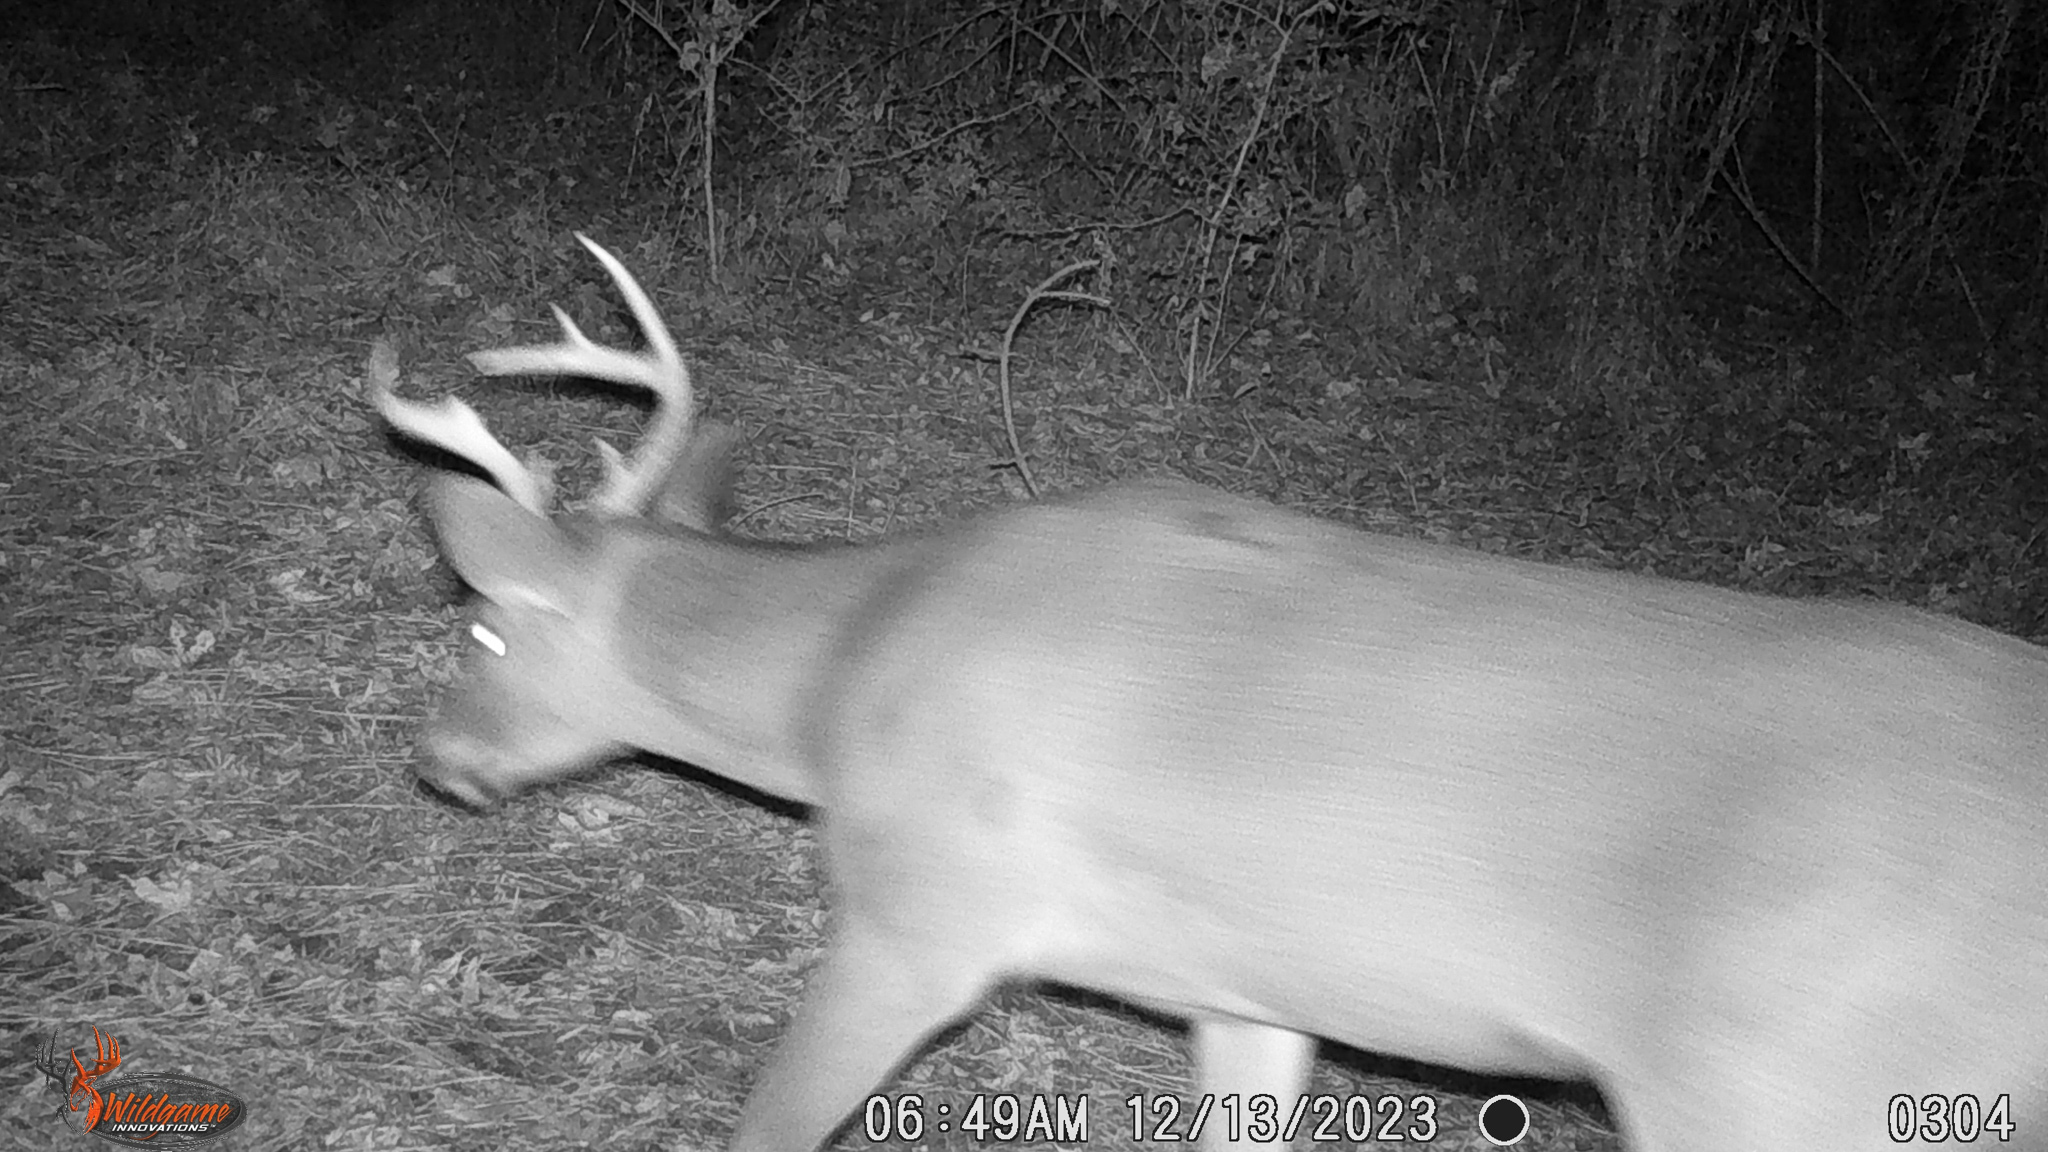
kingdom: Animalia
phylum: Chordata
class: Mammalia
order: Artiodactyla
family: Cervidae
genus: Odocoileus
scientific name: Odocoileus virginianus
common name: White-tailed deer
